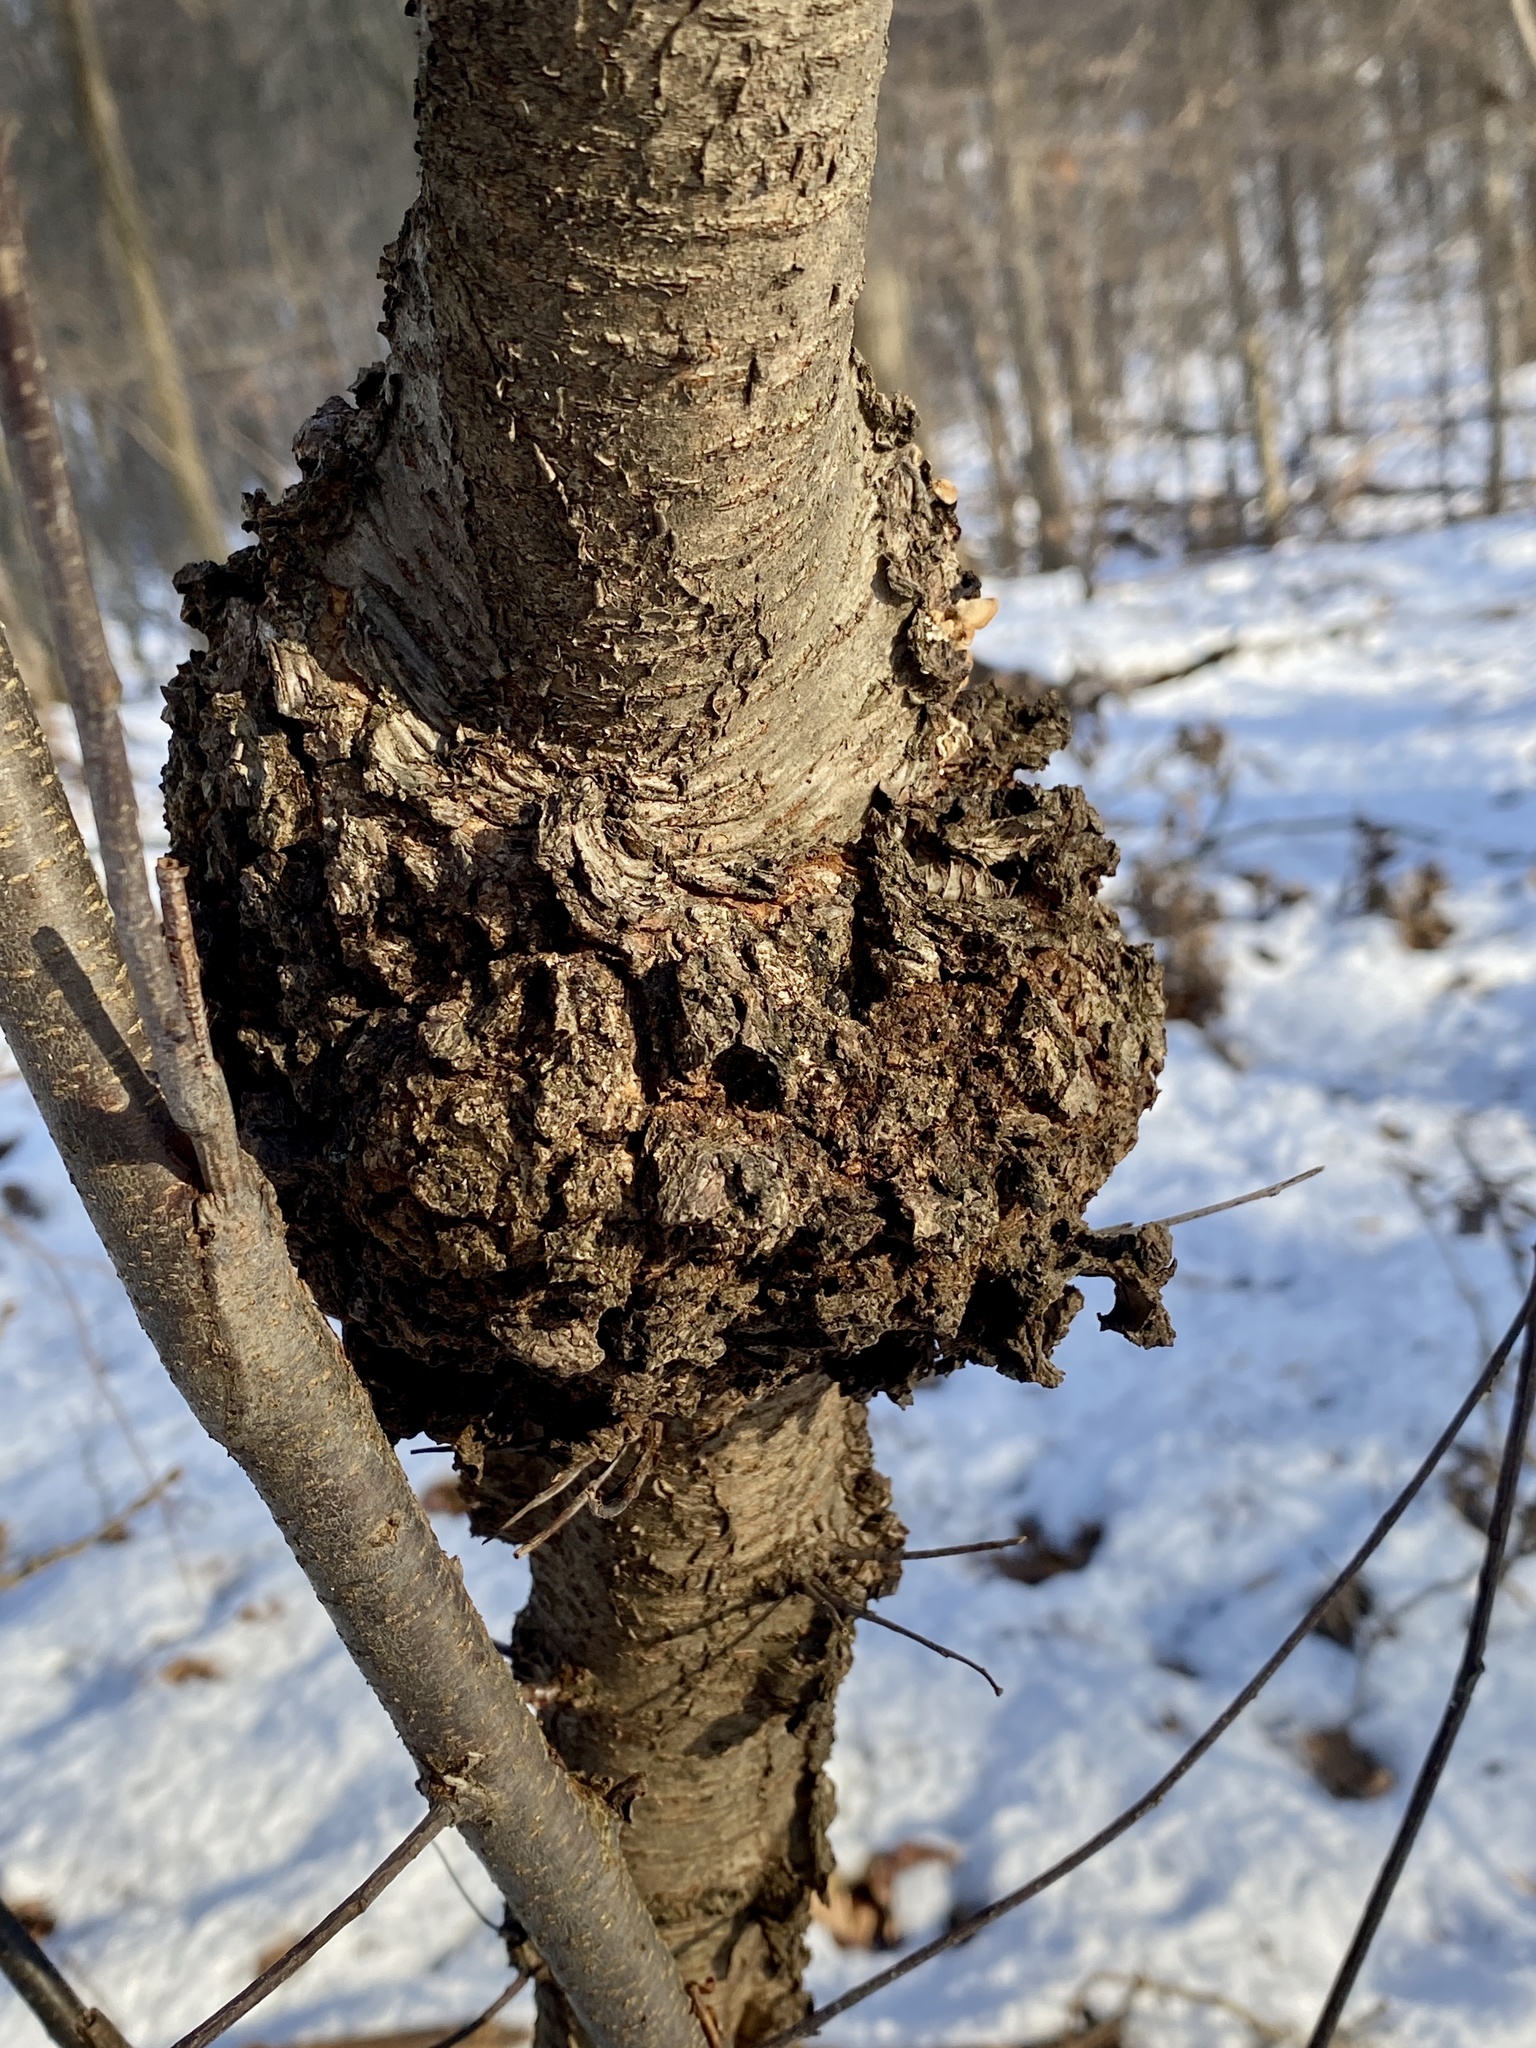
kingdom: Fungi
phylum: Ascomycota
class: Dothideomycetes
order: Venturiales
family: Venturiaceae
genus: Apiosporina
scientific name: Apiosporina morbosa
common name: Black knot
